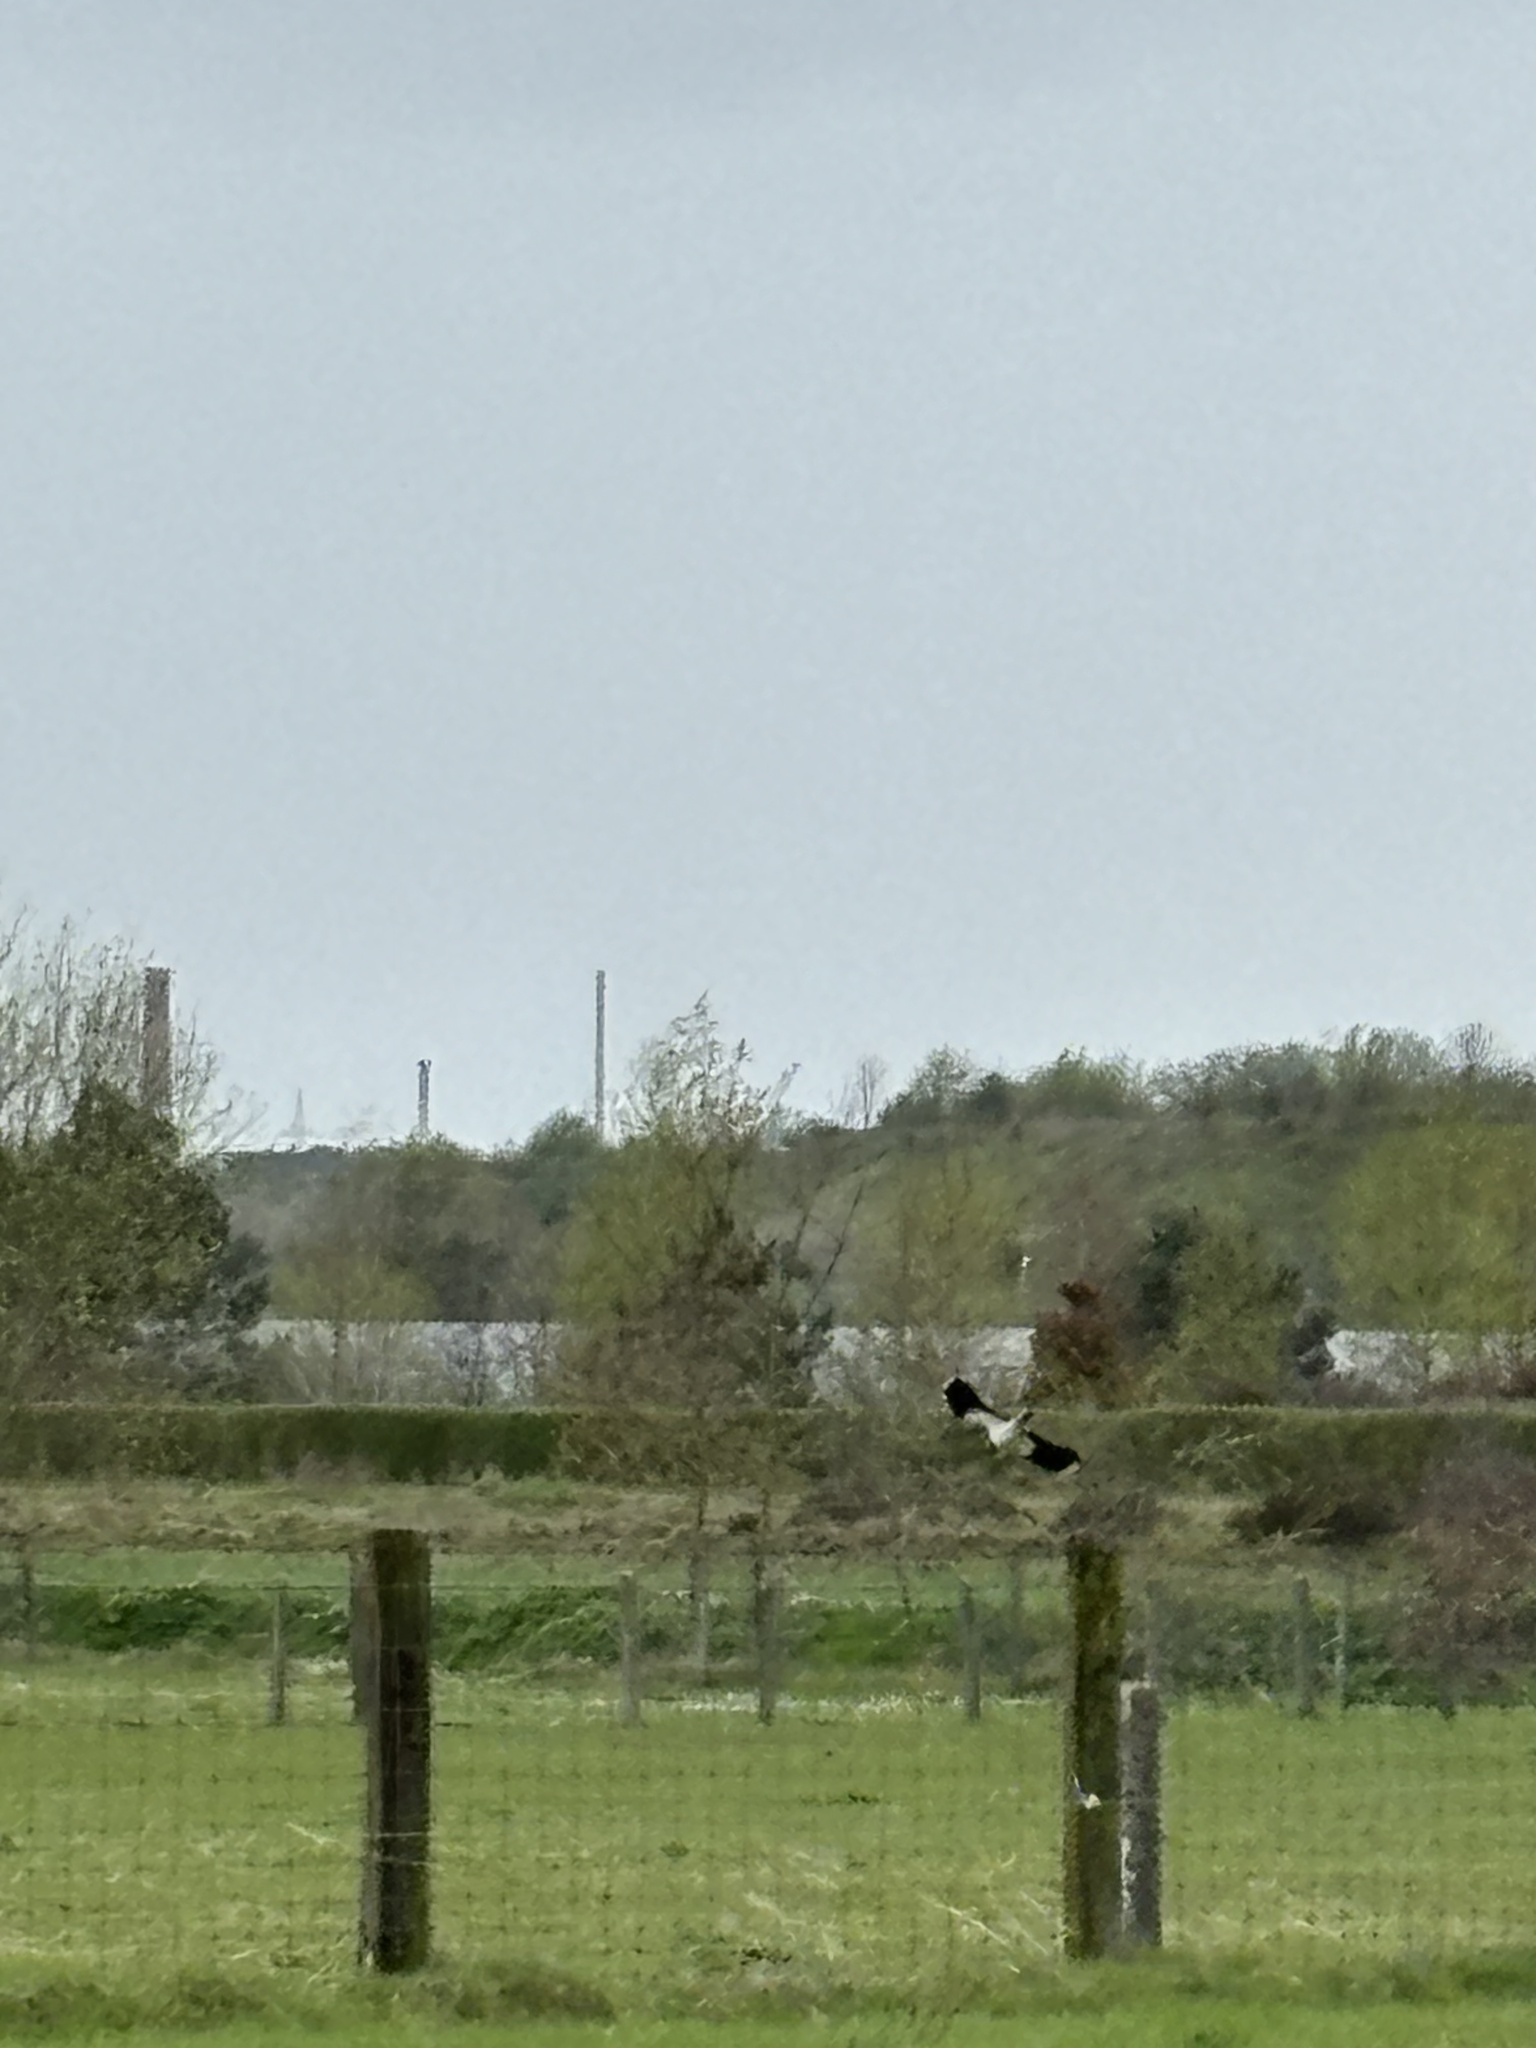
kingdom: Animalia
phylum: Chordata
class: Aves
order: Charadriiformes
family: Charadriidae
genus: Vanellus
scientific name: Vanellus vanellus
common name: Northern lapwing
